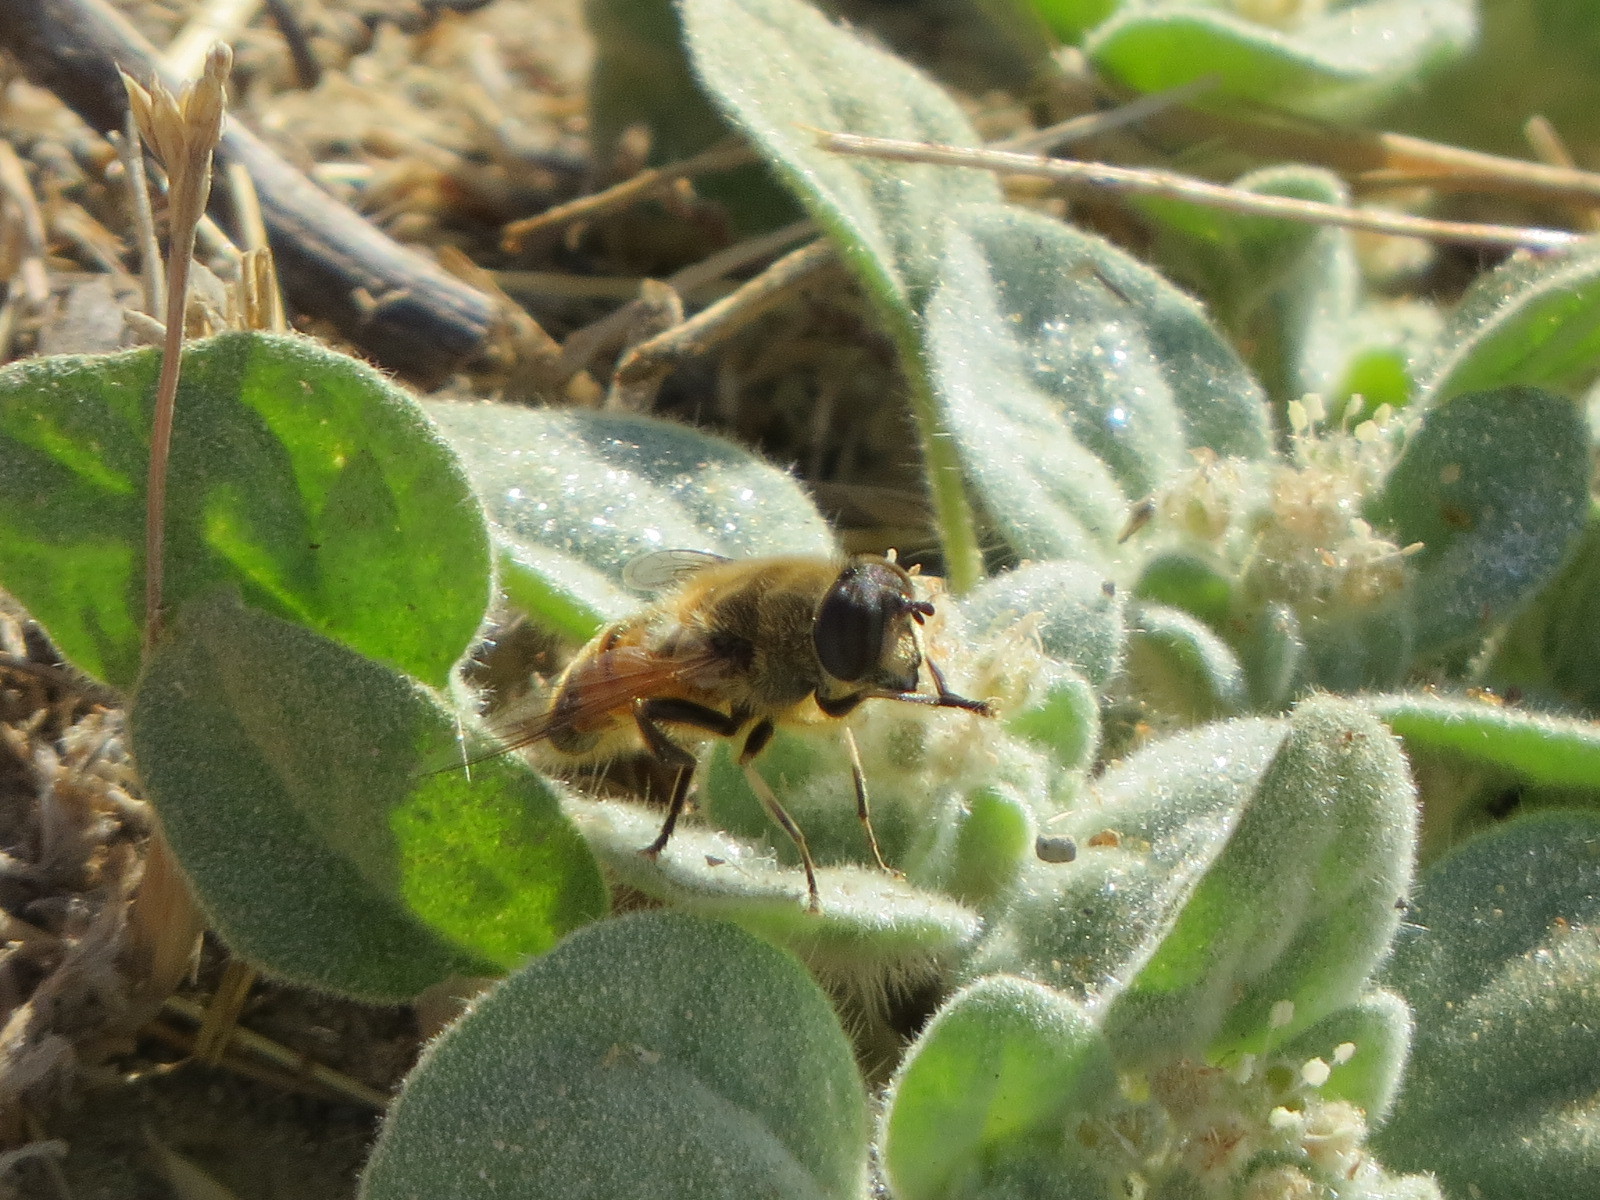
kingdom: Animalia
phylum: Arthropoda
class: Insecta
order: Diptera
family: Syrphidae
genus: Eristalis
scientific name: Eristalis tenax
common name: Drone fly
